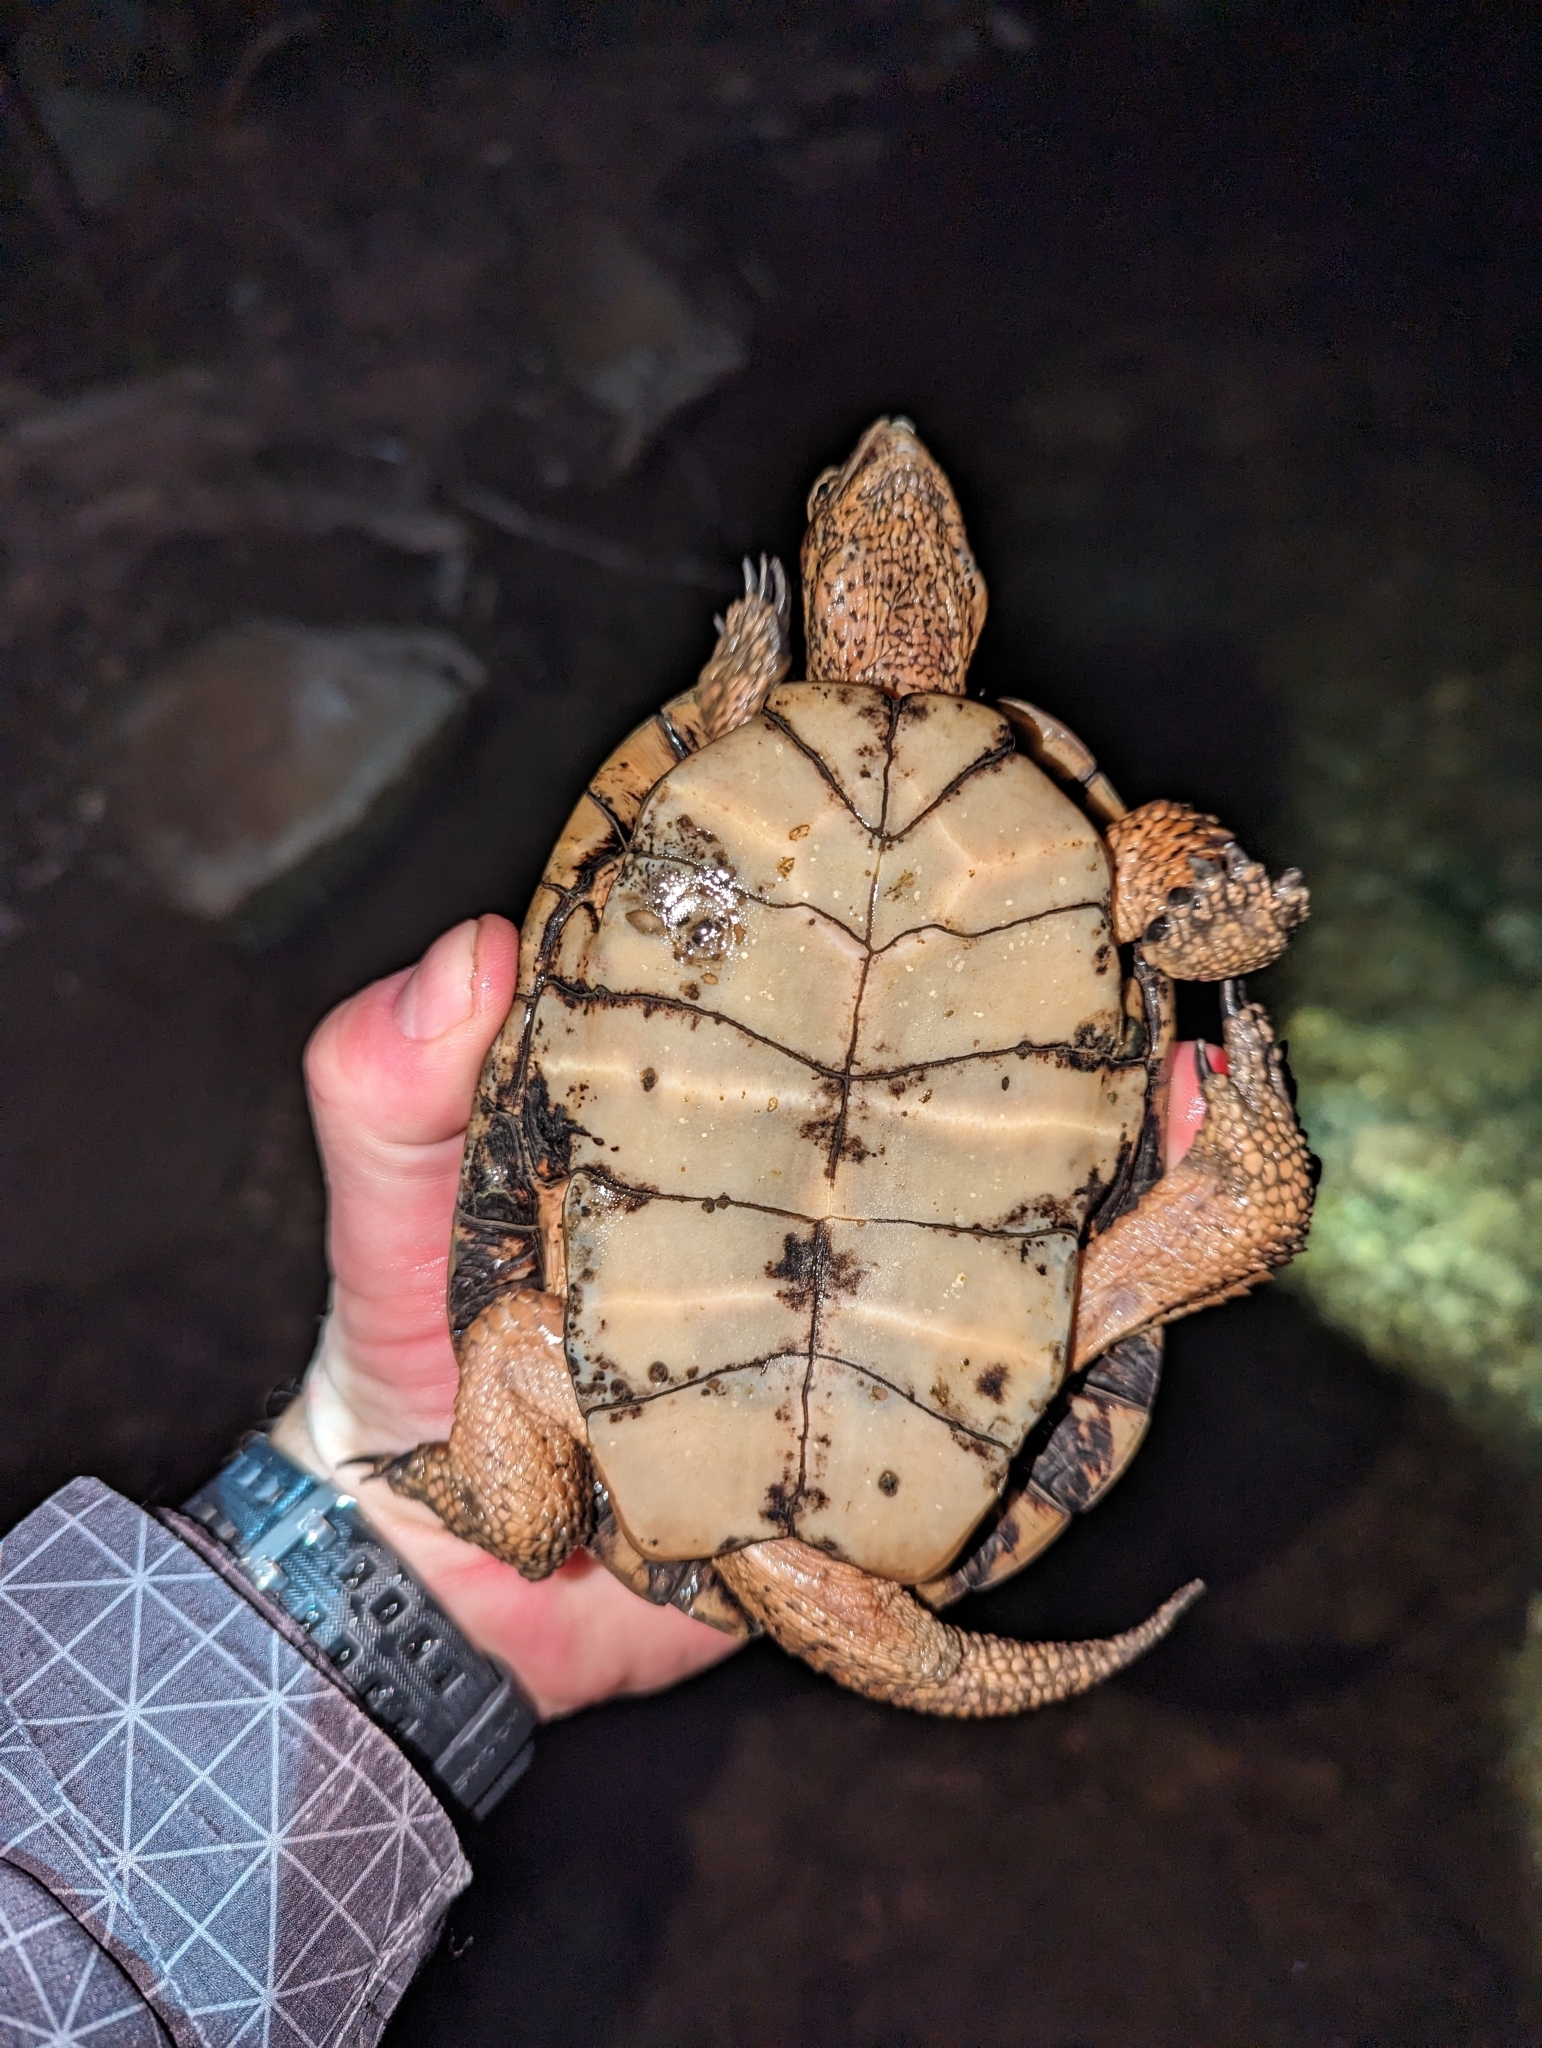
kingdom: Animalia
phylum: Chordata
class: Testudines
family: Emydidae
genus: Actinemys
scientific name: Actinemys marmorata
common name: Western pond turtle
